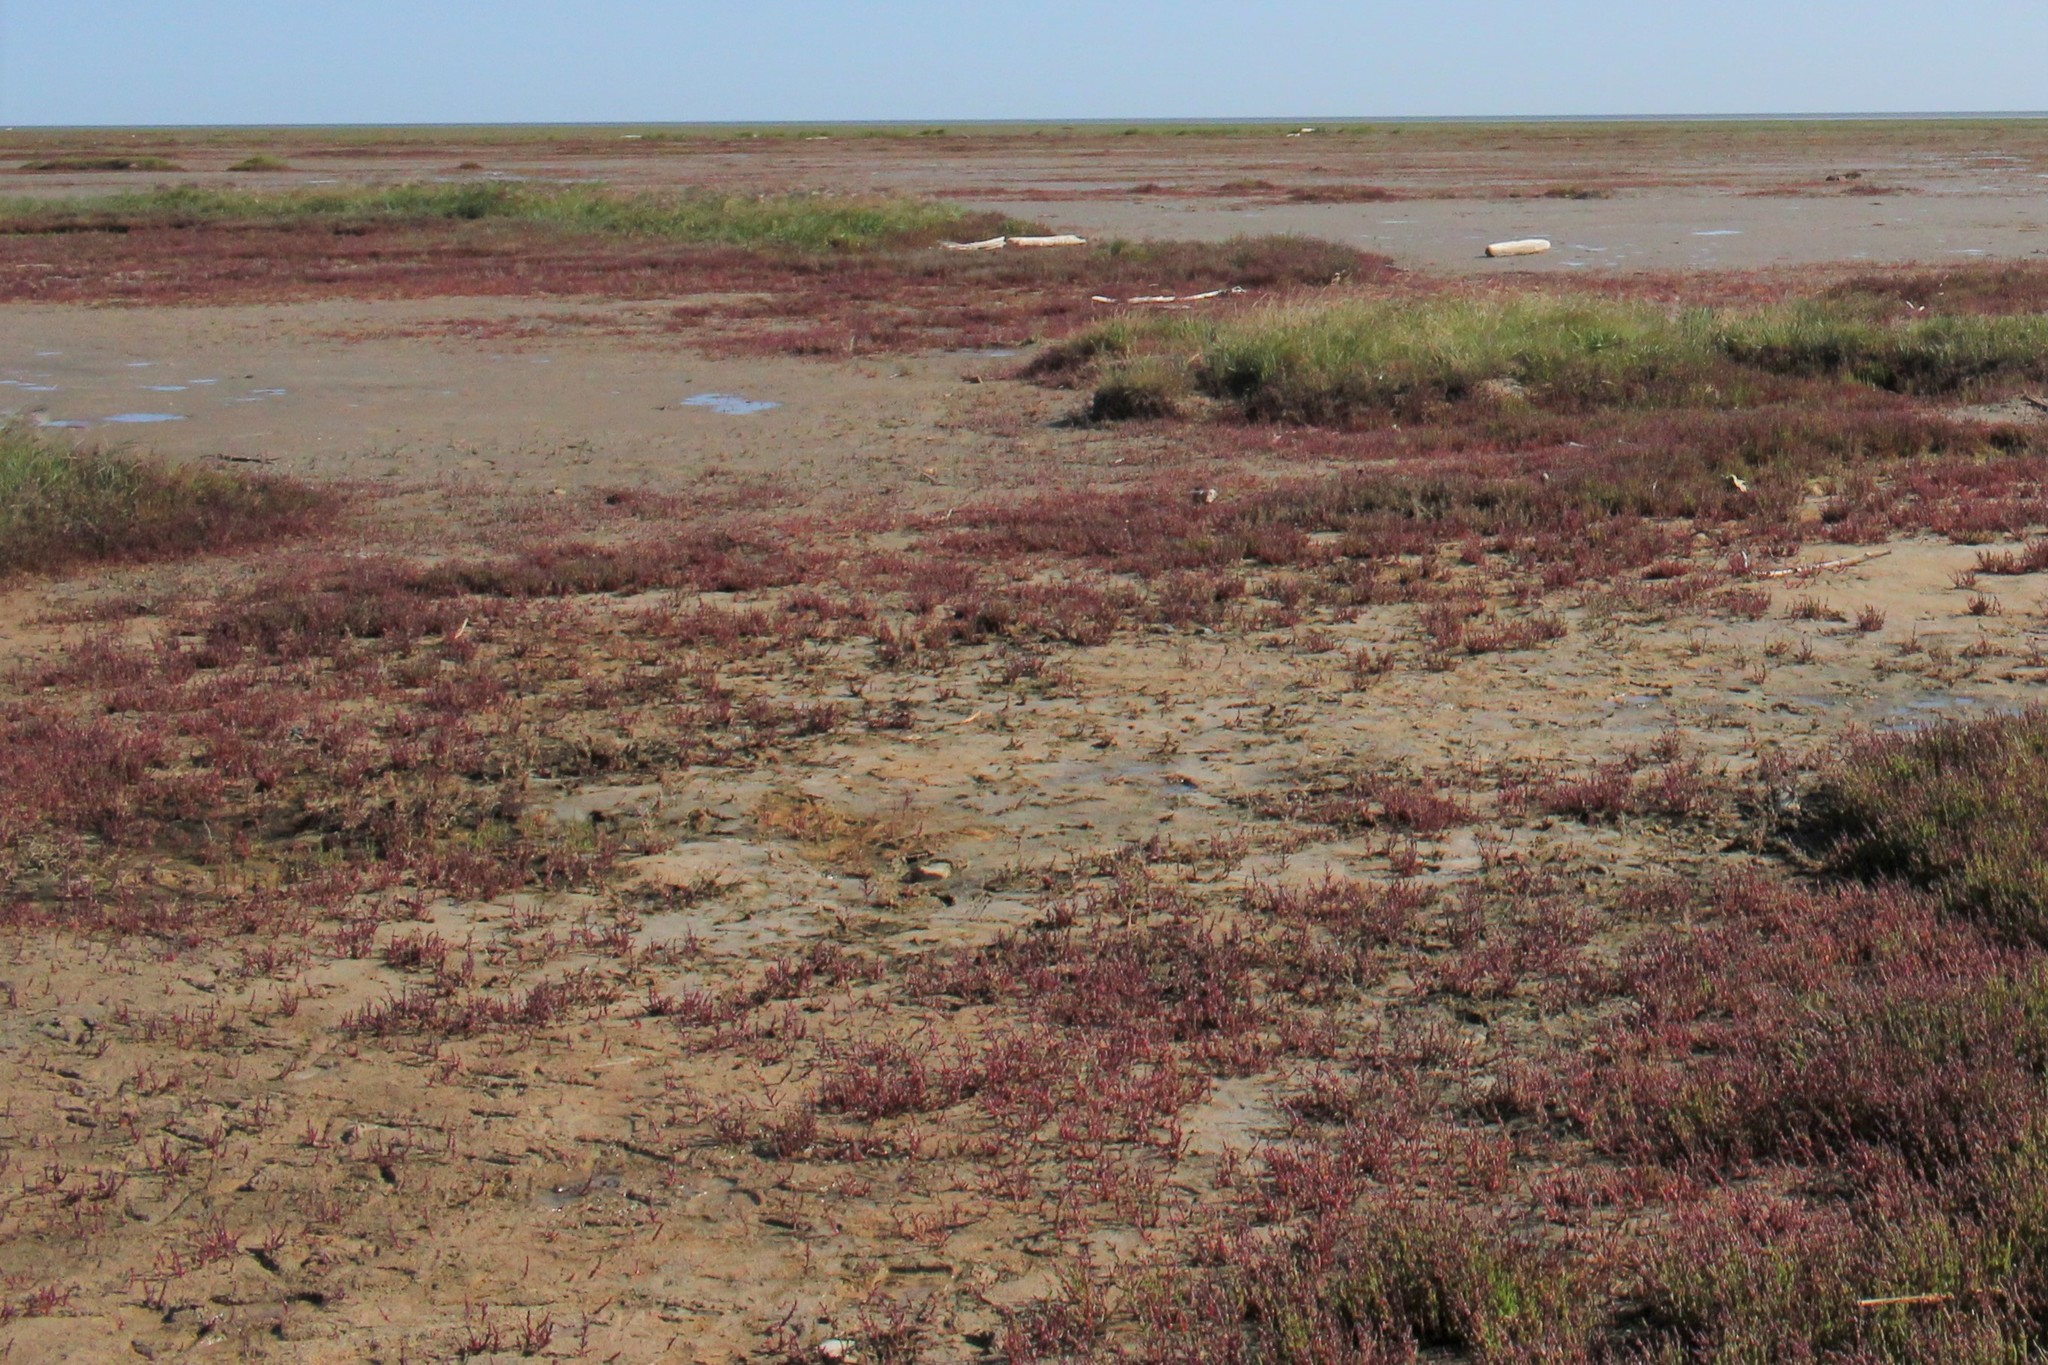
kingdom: Plantae
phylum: Tracheophyta
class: Magnoliopsida
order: Caryophyllales
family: Amaranthaceae
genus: Salicornia
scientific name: Salicornia europaea
